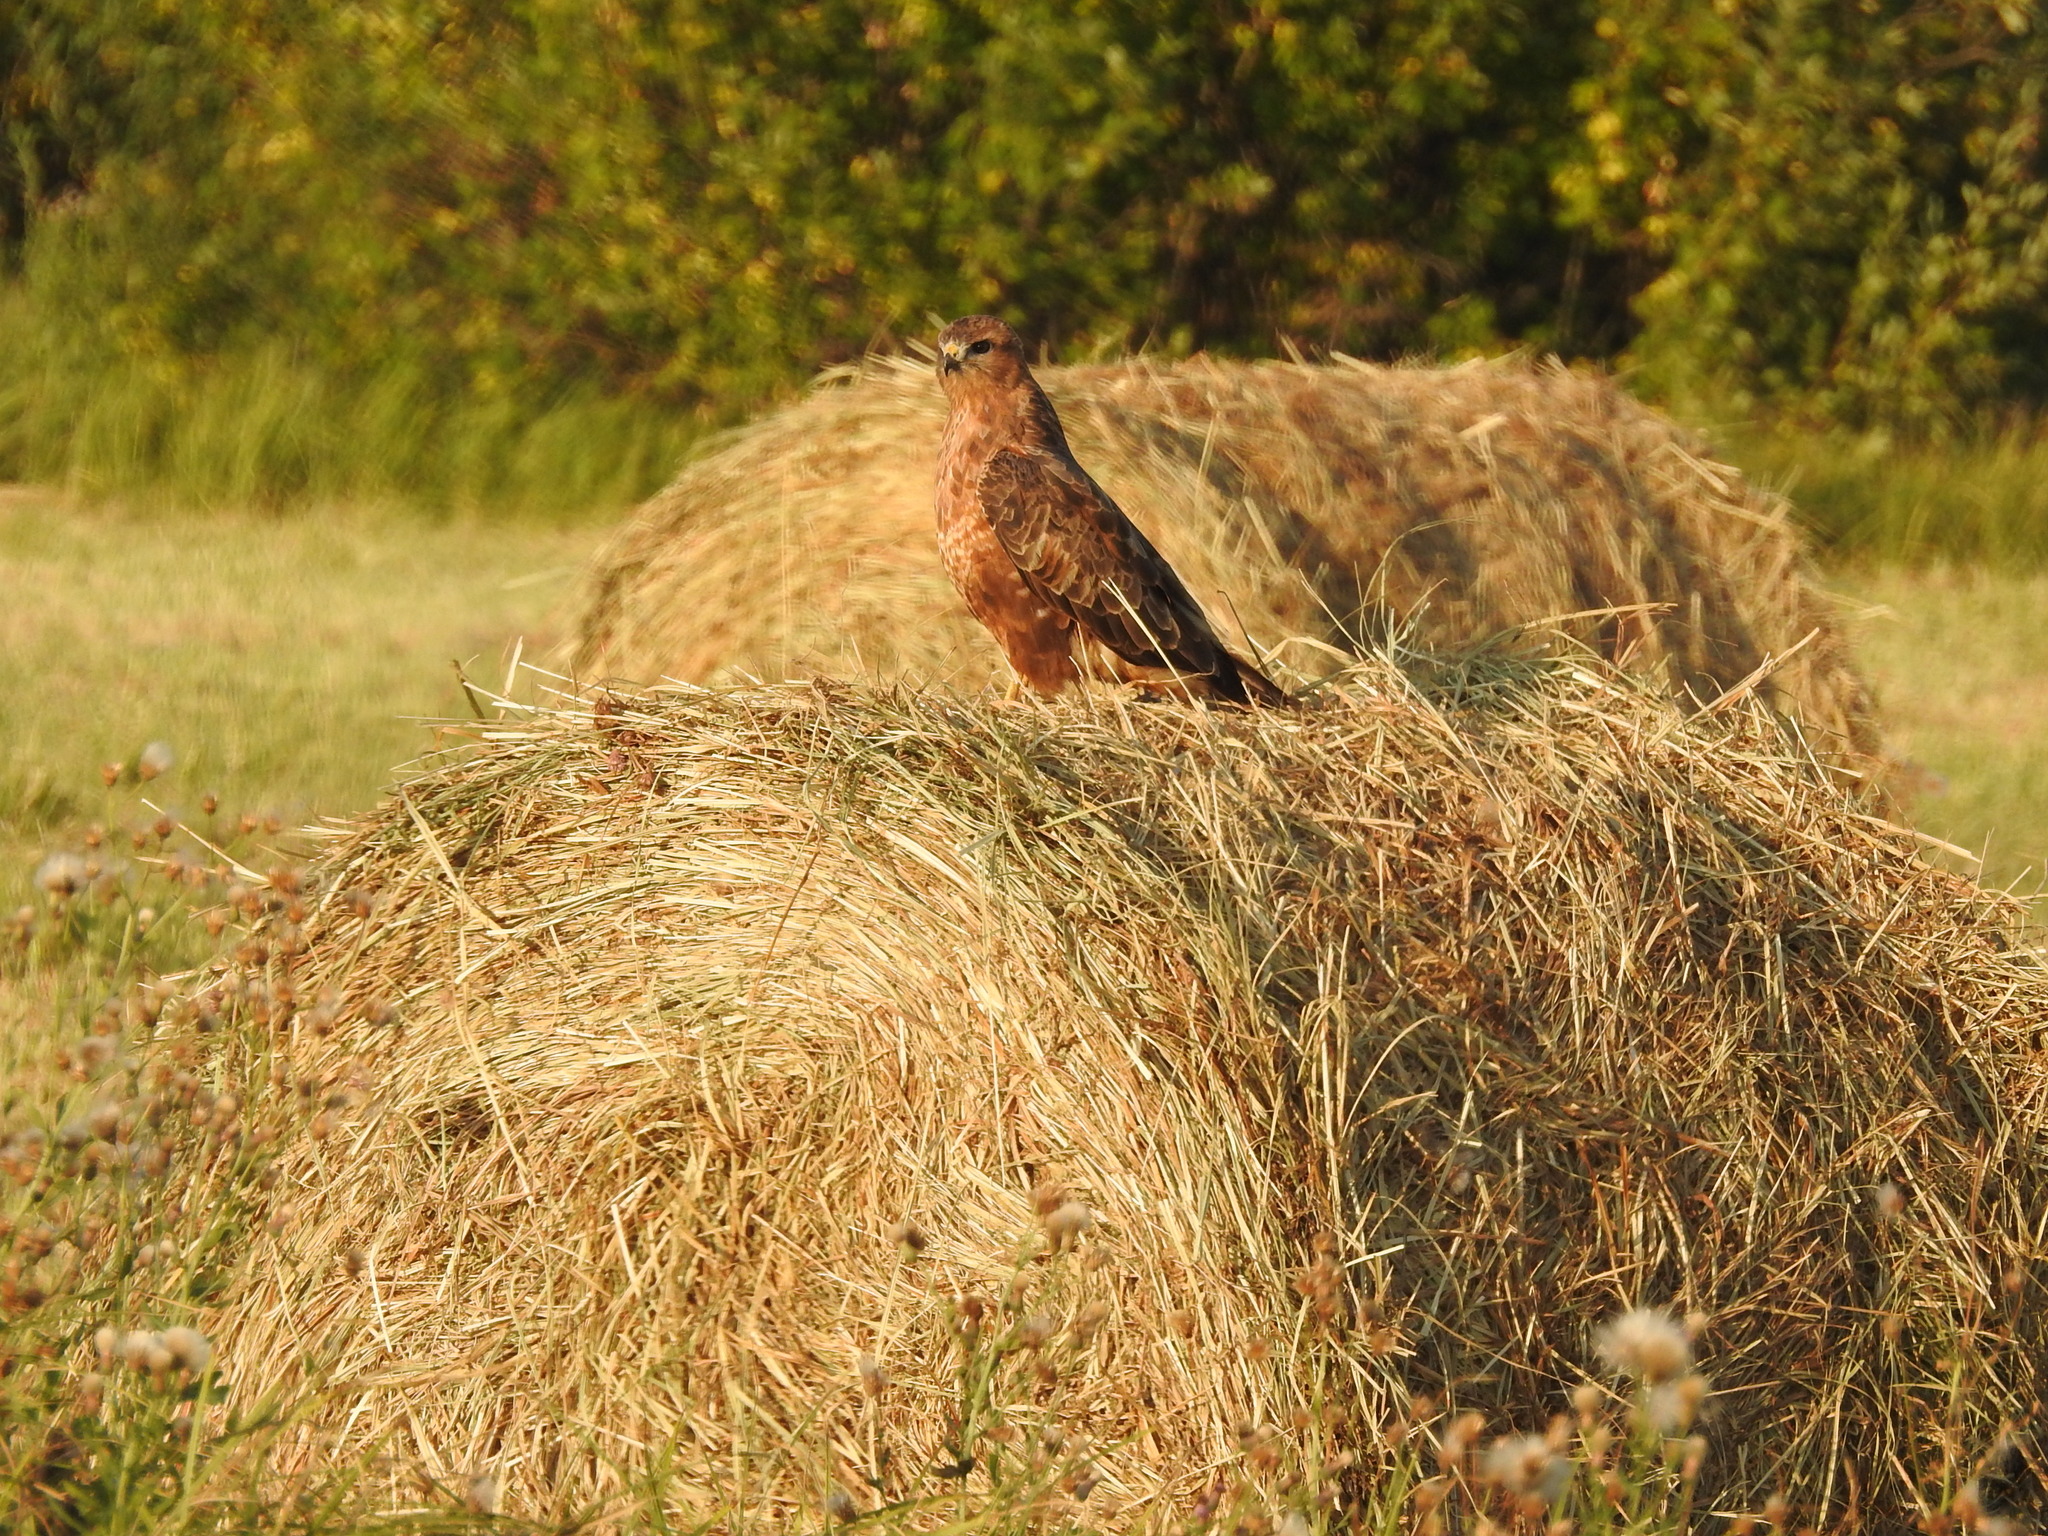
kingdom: Animalia
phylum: Chordata
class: Aves
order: Accipitriformes
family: Accipitridae
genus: Buteo
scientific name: Buteo buteo
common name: Common buzzard
